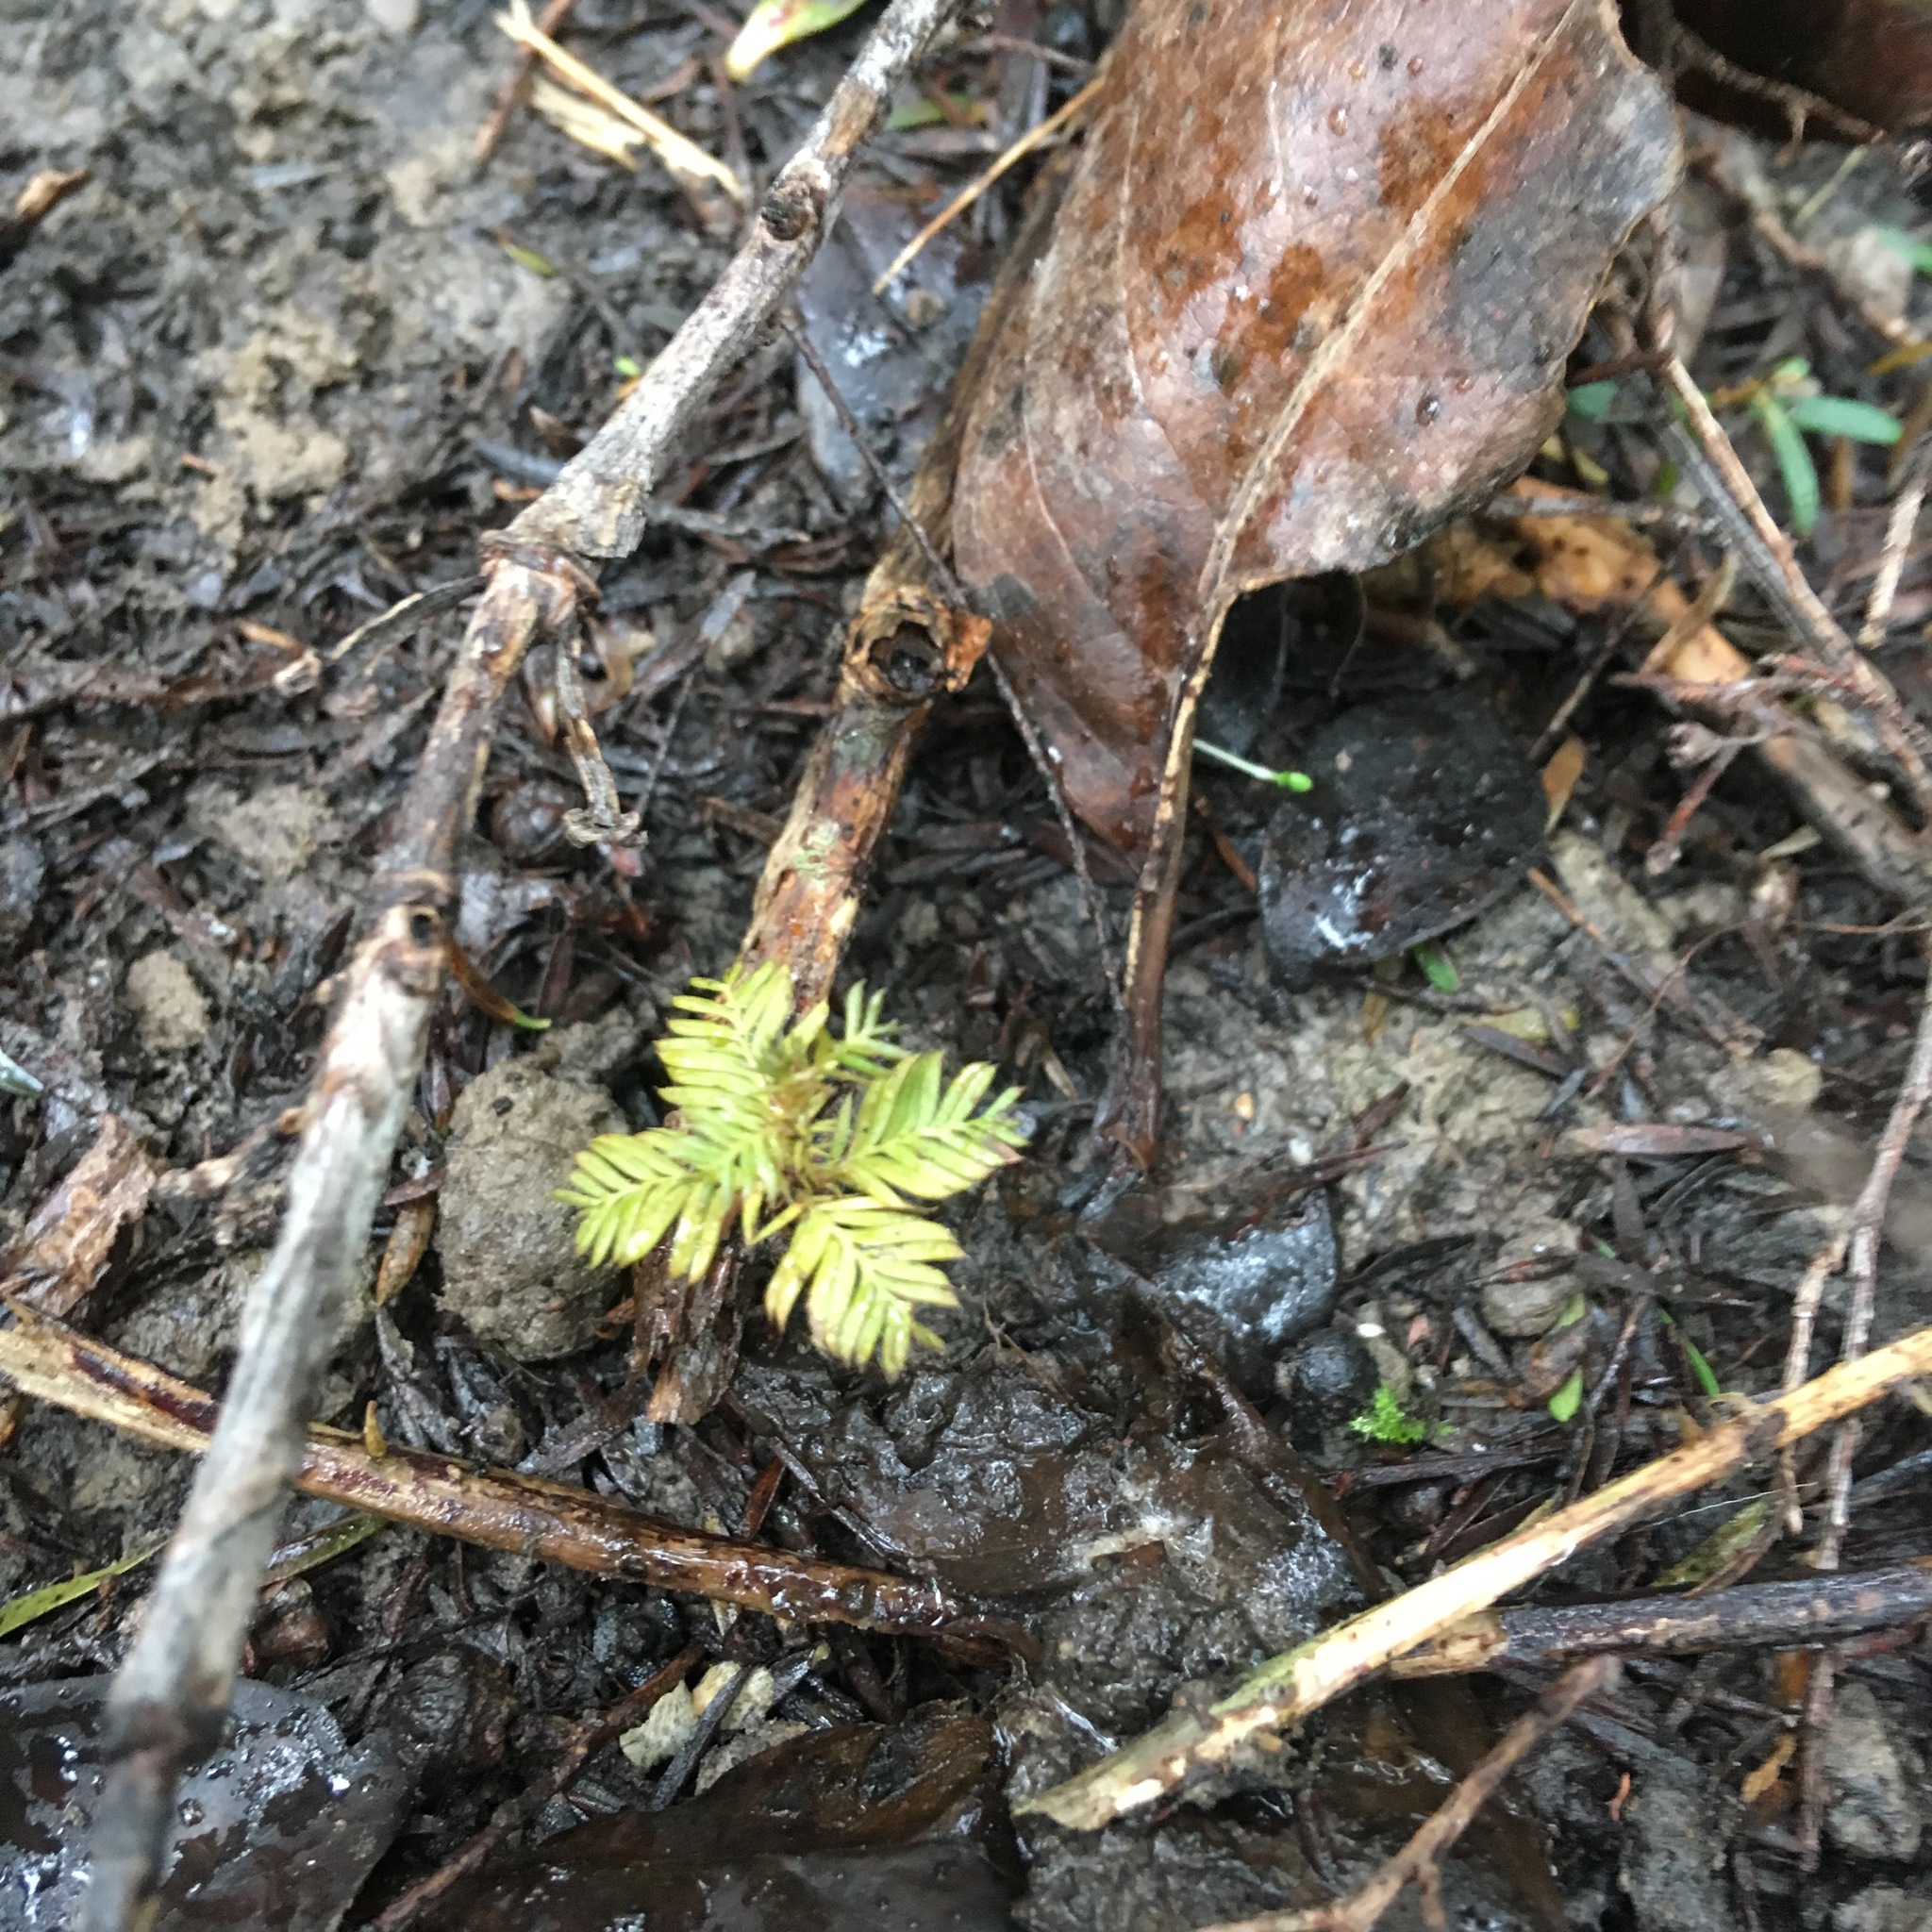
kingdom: Plantae
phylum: Tracheophyta
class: Pinopsida
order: Pinales
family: Podocarpaceae
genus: Dacrycarpus
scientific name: Dacrycarpus dacrydioides
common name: White pine
